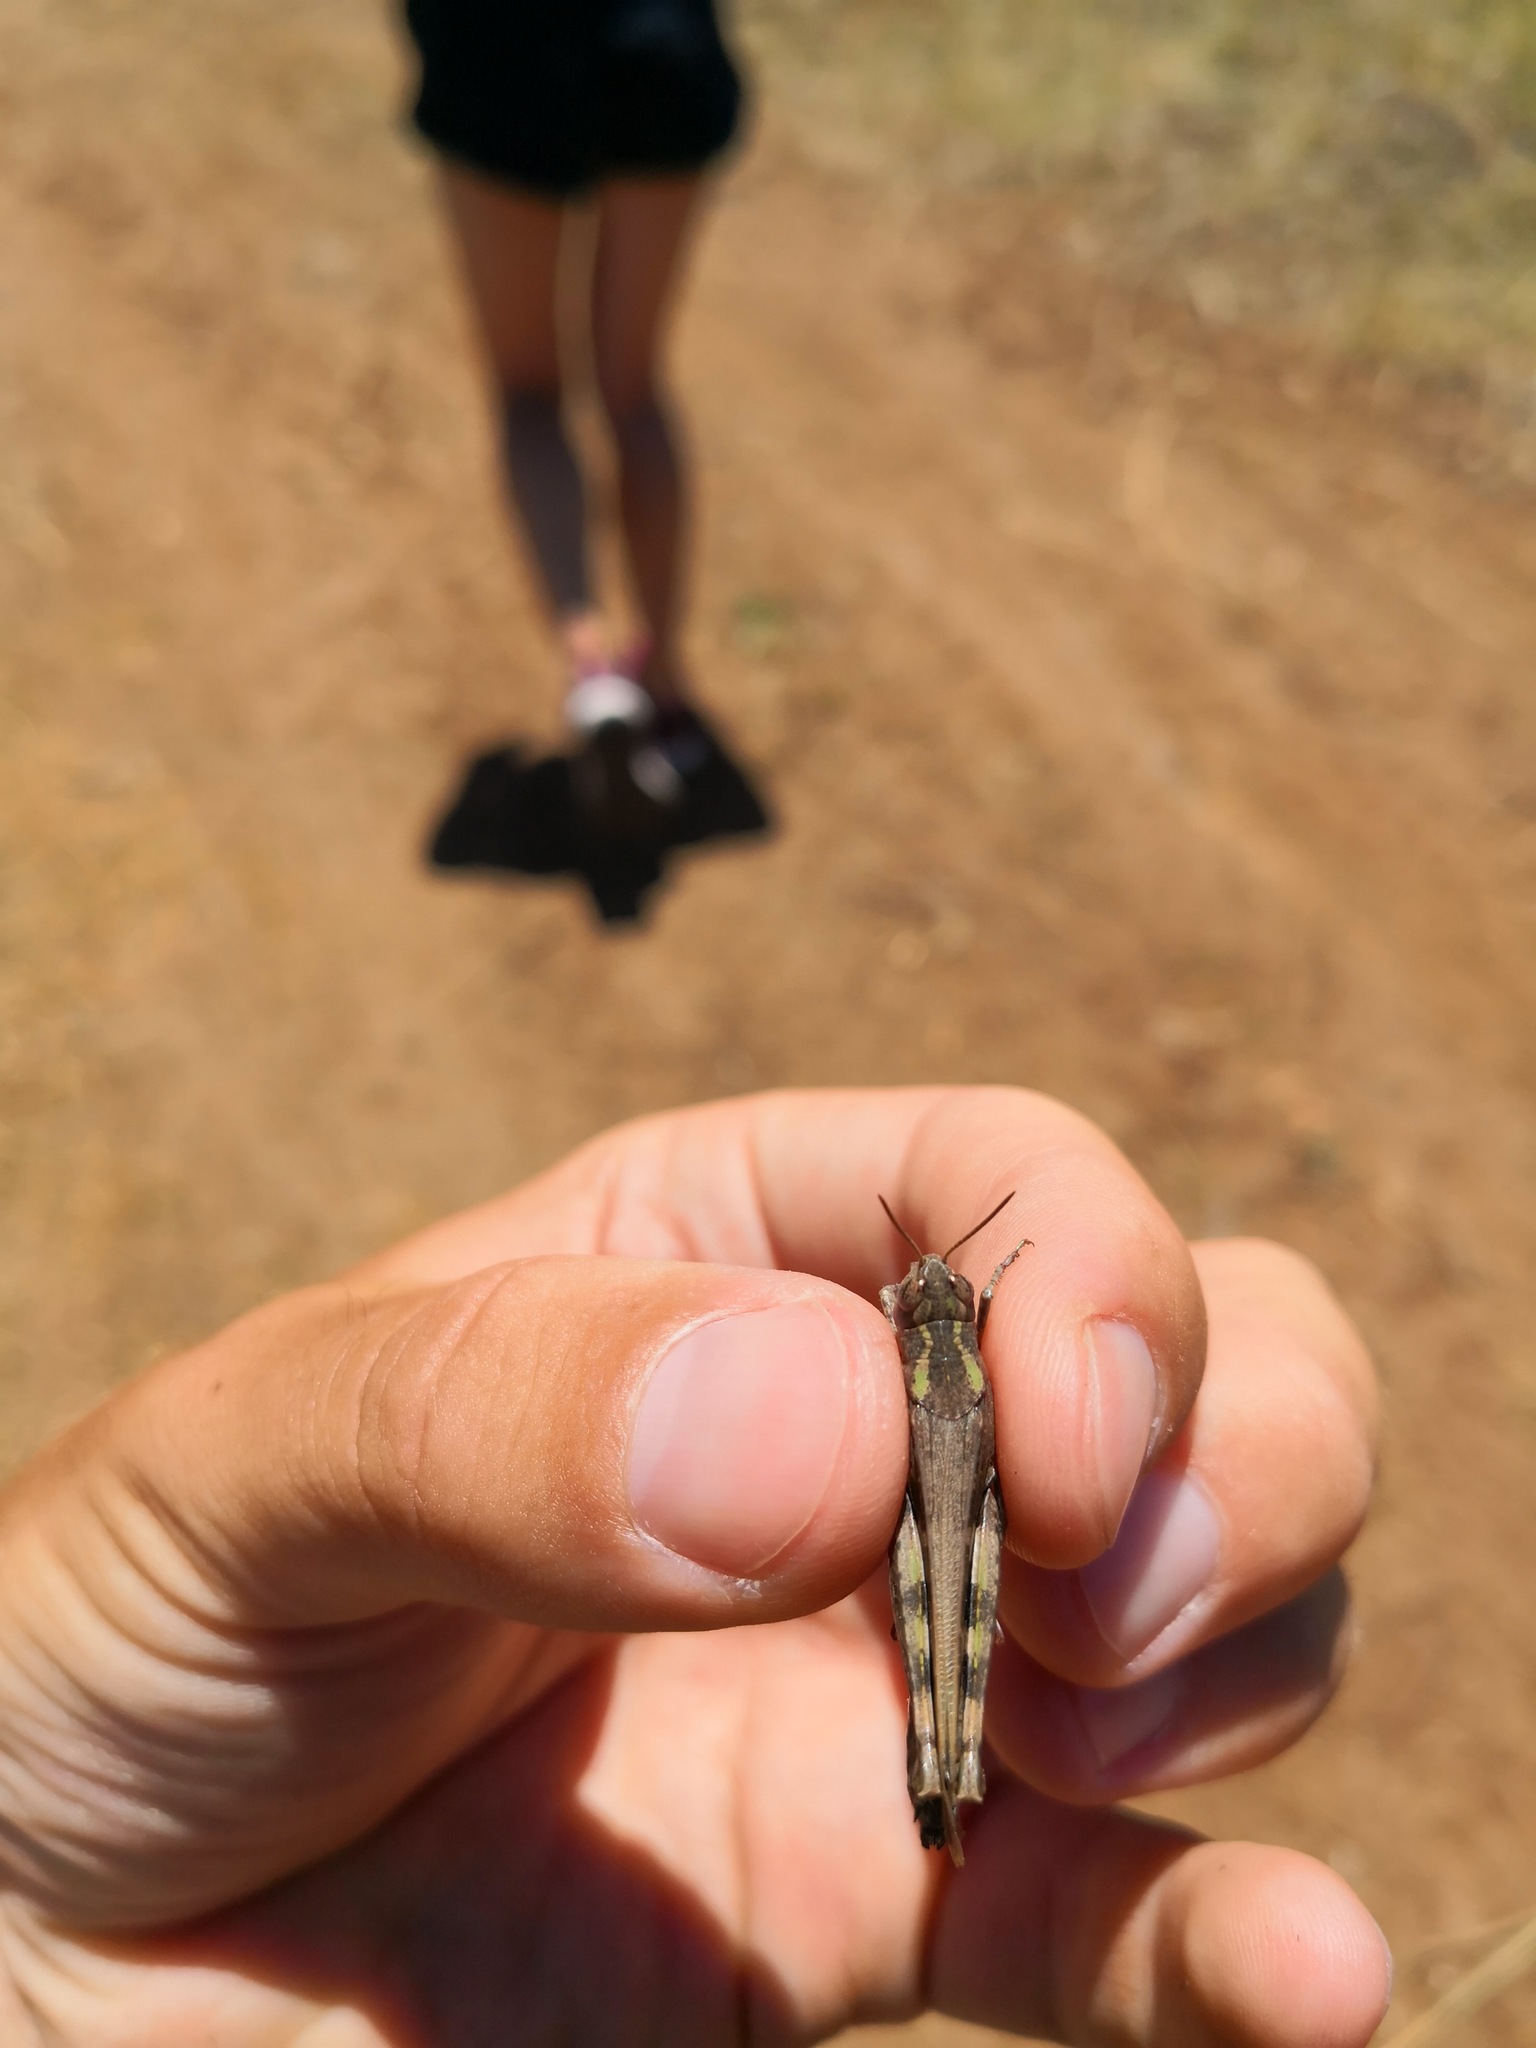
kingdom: Animalia
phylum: Arthropoda
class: Insecta
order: Orthoptera
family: Acrididae
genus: Aiolopus
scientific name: Aiolopus strepens
